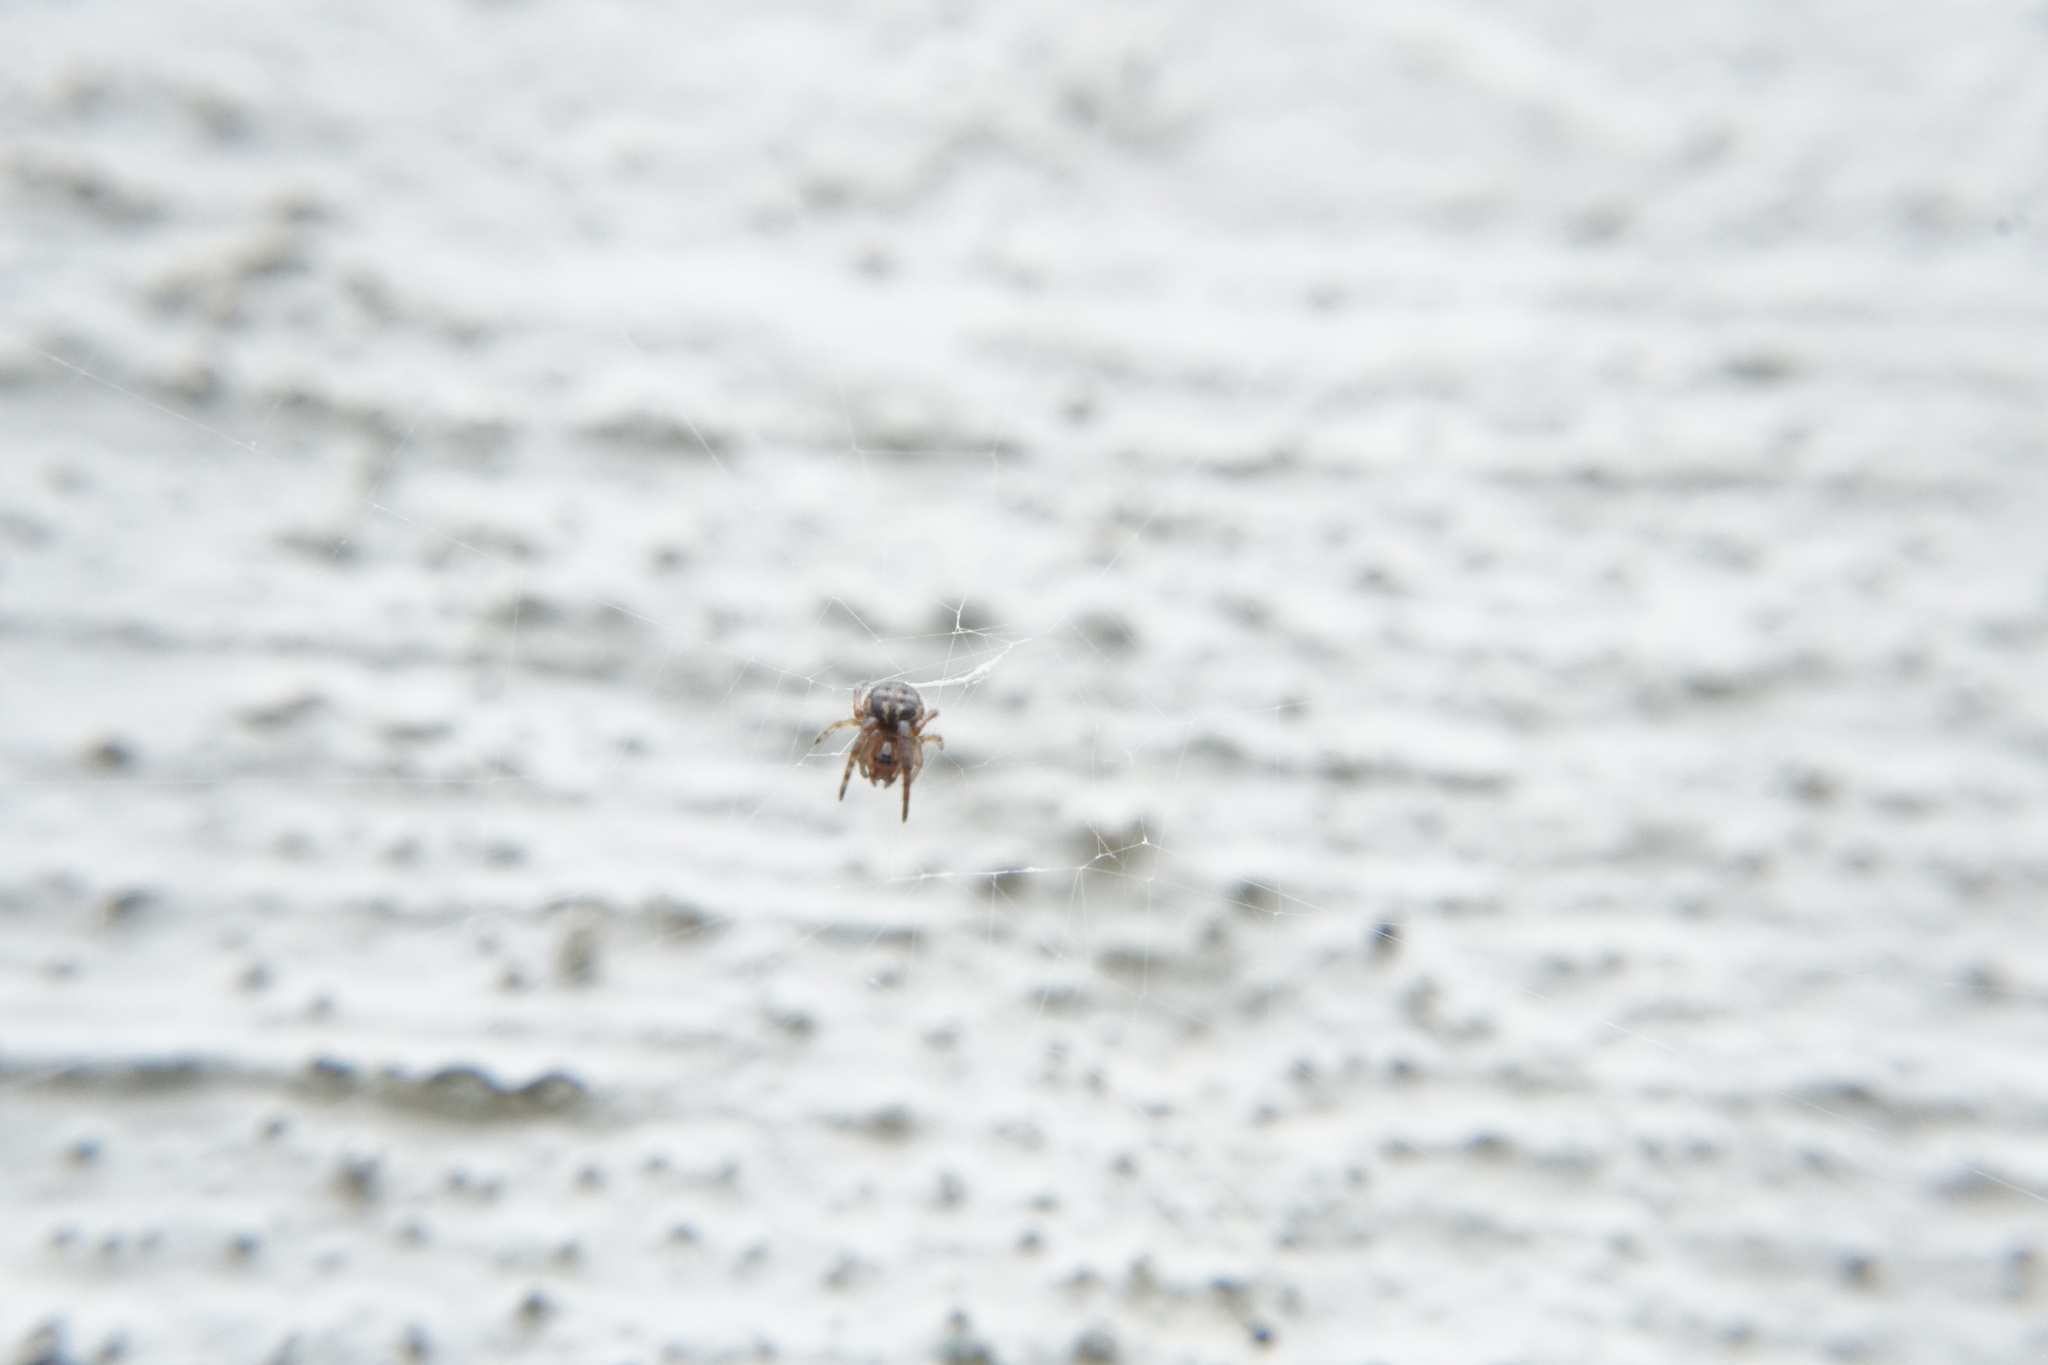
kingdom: Animalia
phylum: Arthropoda
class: Arachnida
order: Araneae
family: Araneidae
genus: Larinioides
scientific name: Larinioides cornutus
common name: Furrow orbweaver
